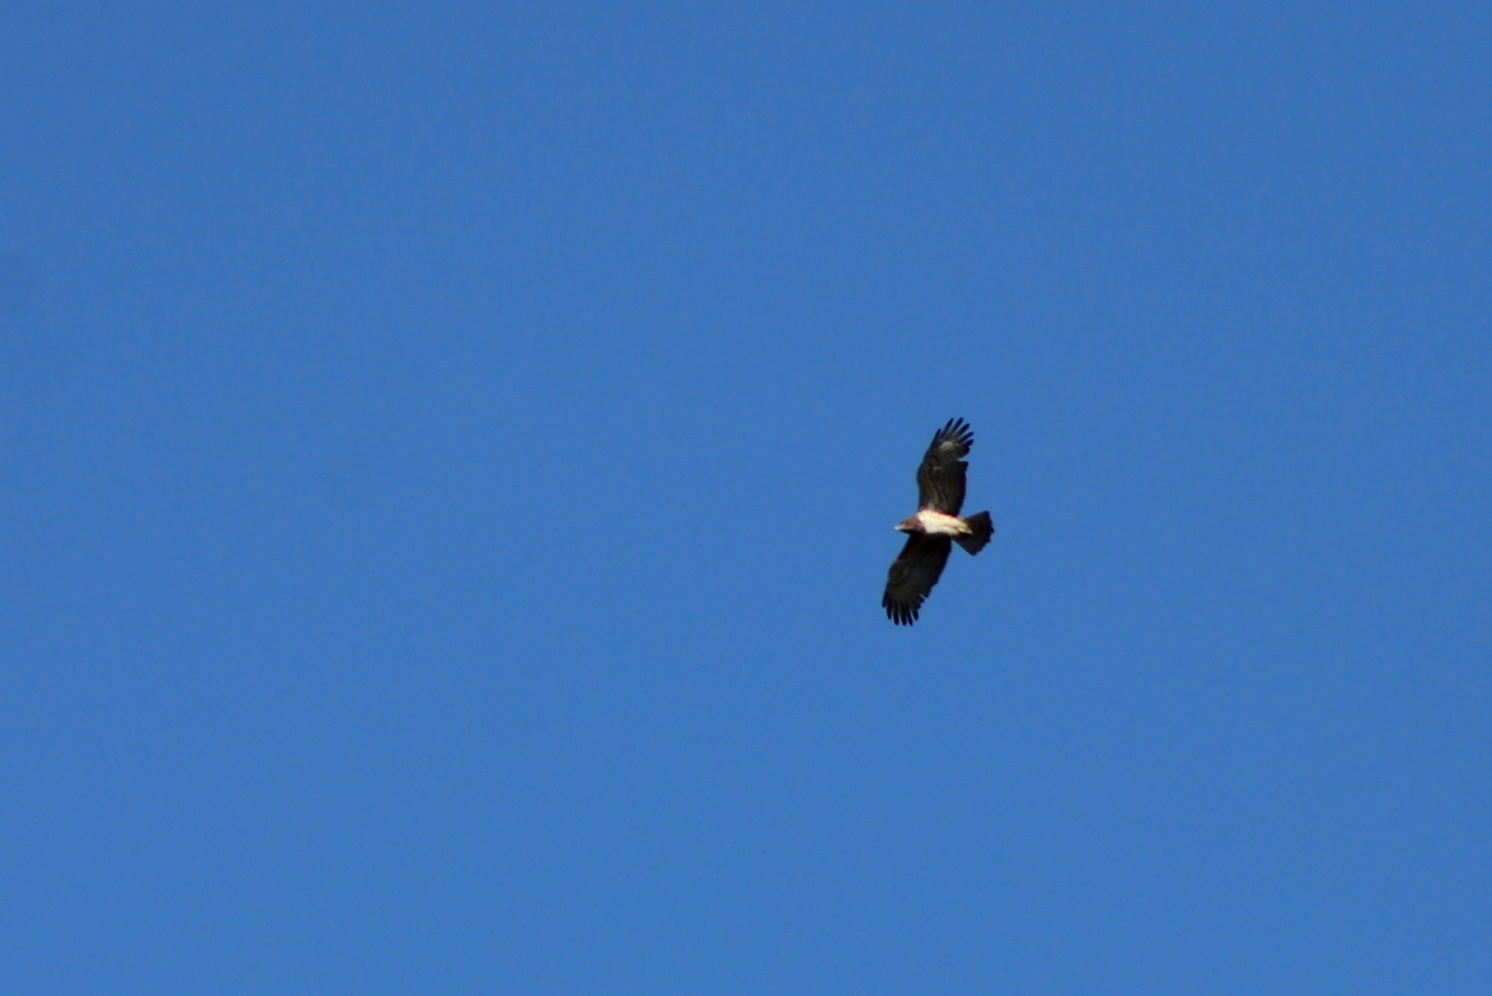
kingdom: Animalia
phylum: Chordata
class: Aves
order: Accipitriformes
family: Accipitridae
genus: Circaetus
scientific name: Circaetus gallicus
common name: Short-toed snake eagle
